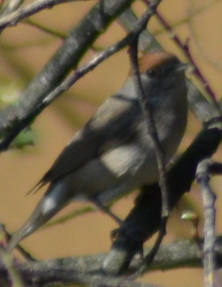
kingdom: Animalia
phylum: Chordata
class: Aves
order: Passeriformes
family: Sylviidae
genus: Sylvia
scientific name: Sylvia atricapilla
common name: Eurasian blackcap
